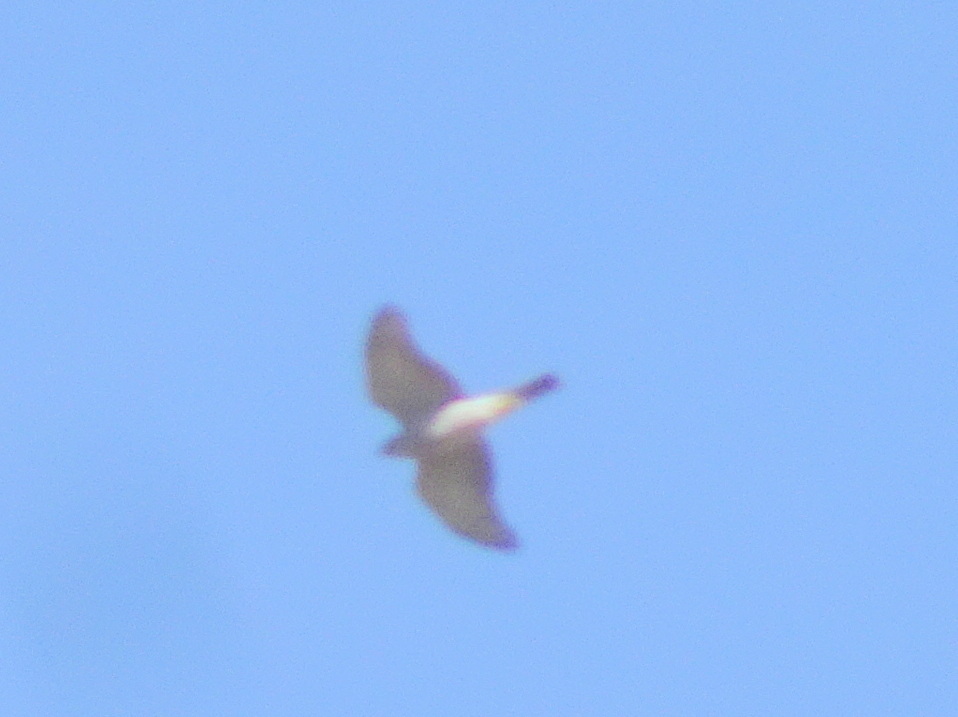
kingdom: Animalia
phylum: Chordata
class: Aves
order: Accipitriformes
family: Accipitridae
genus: Accipiter
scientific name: Accipiter nisus
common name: Eurasian sparrowhawk
